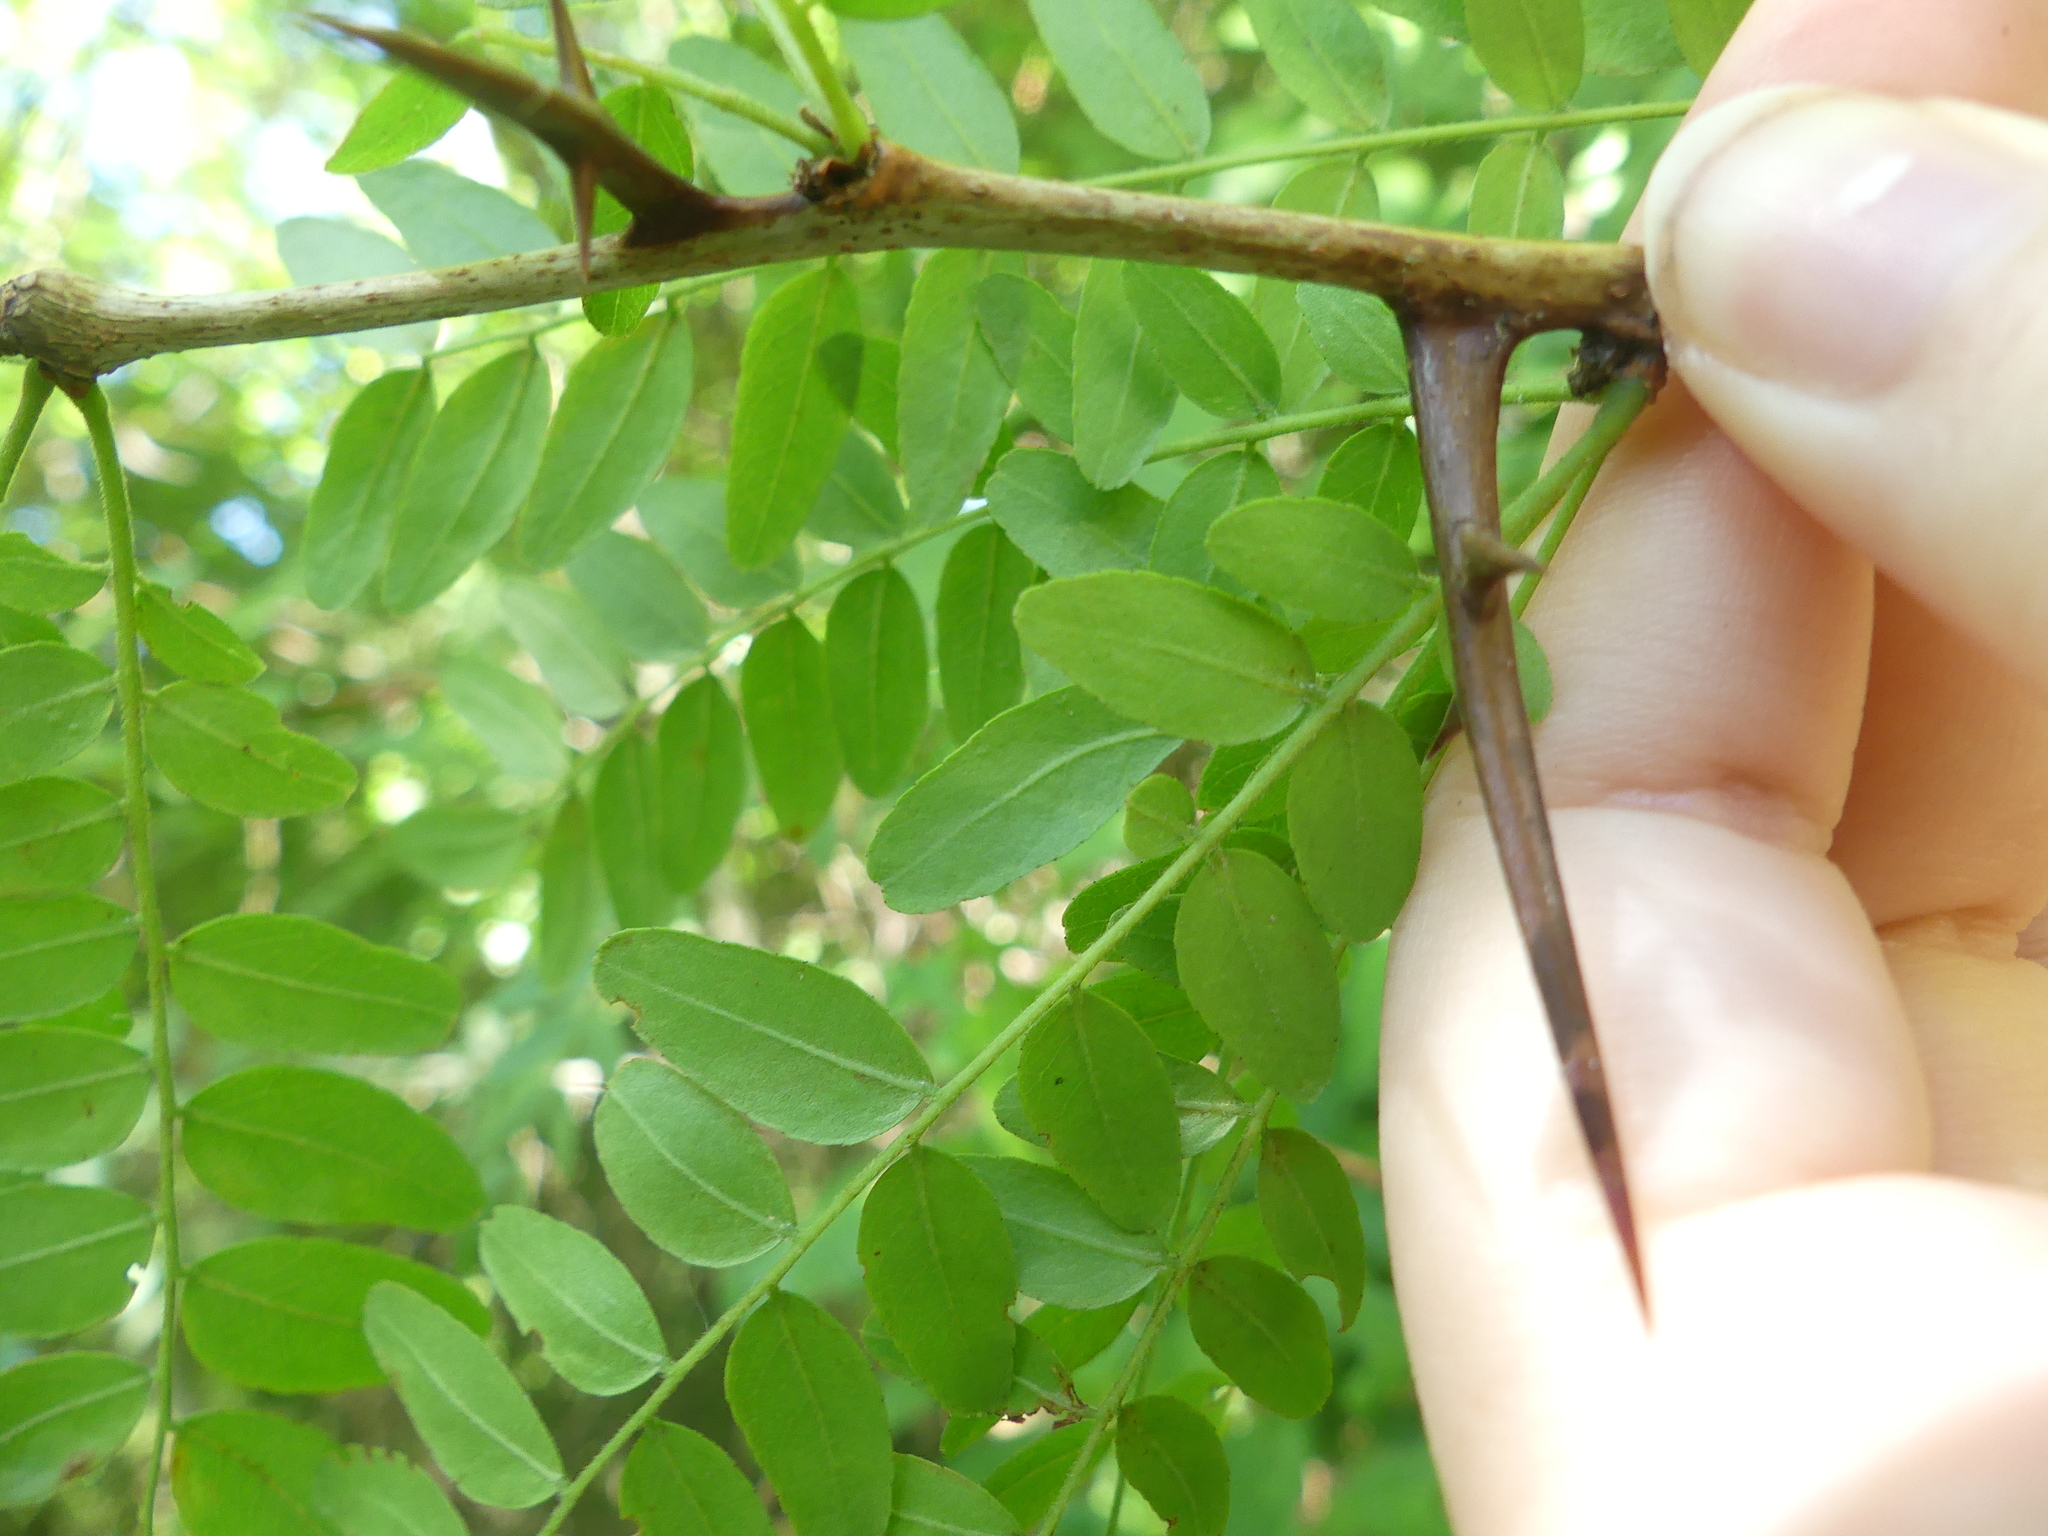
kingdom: Plantae
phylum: Tracheophyta
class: Magnoliopsida
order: Fabales
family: Fabaceae
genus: Gleditsia
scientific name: Gleditsia triacanthos
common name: Common honeylocust
